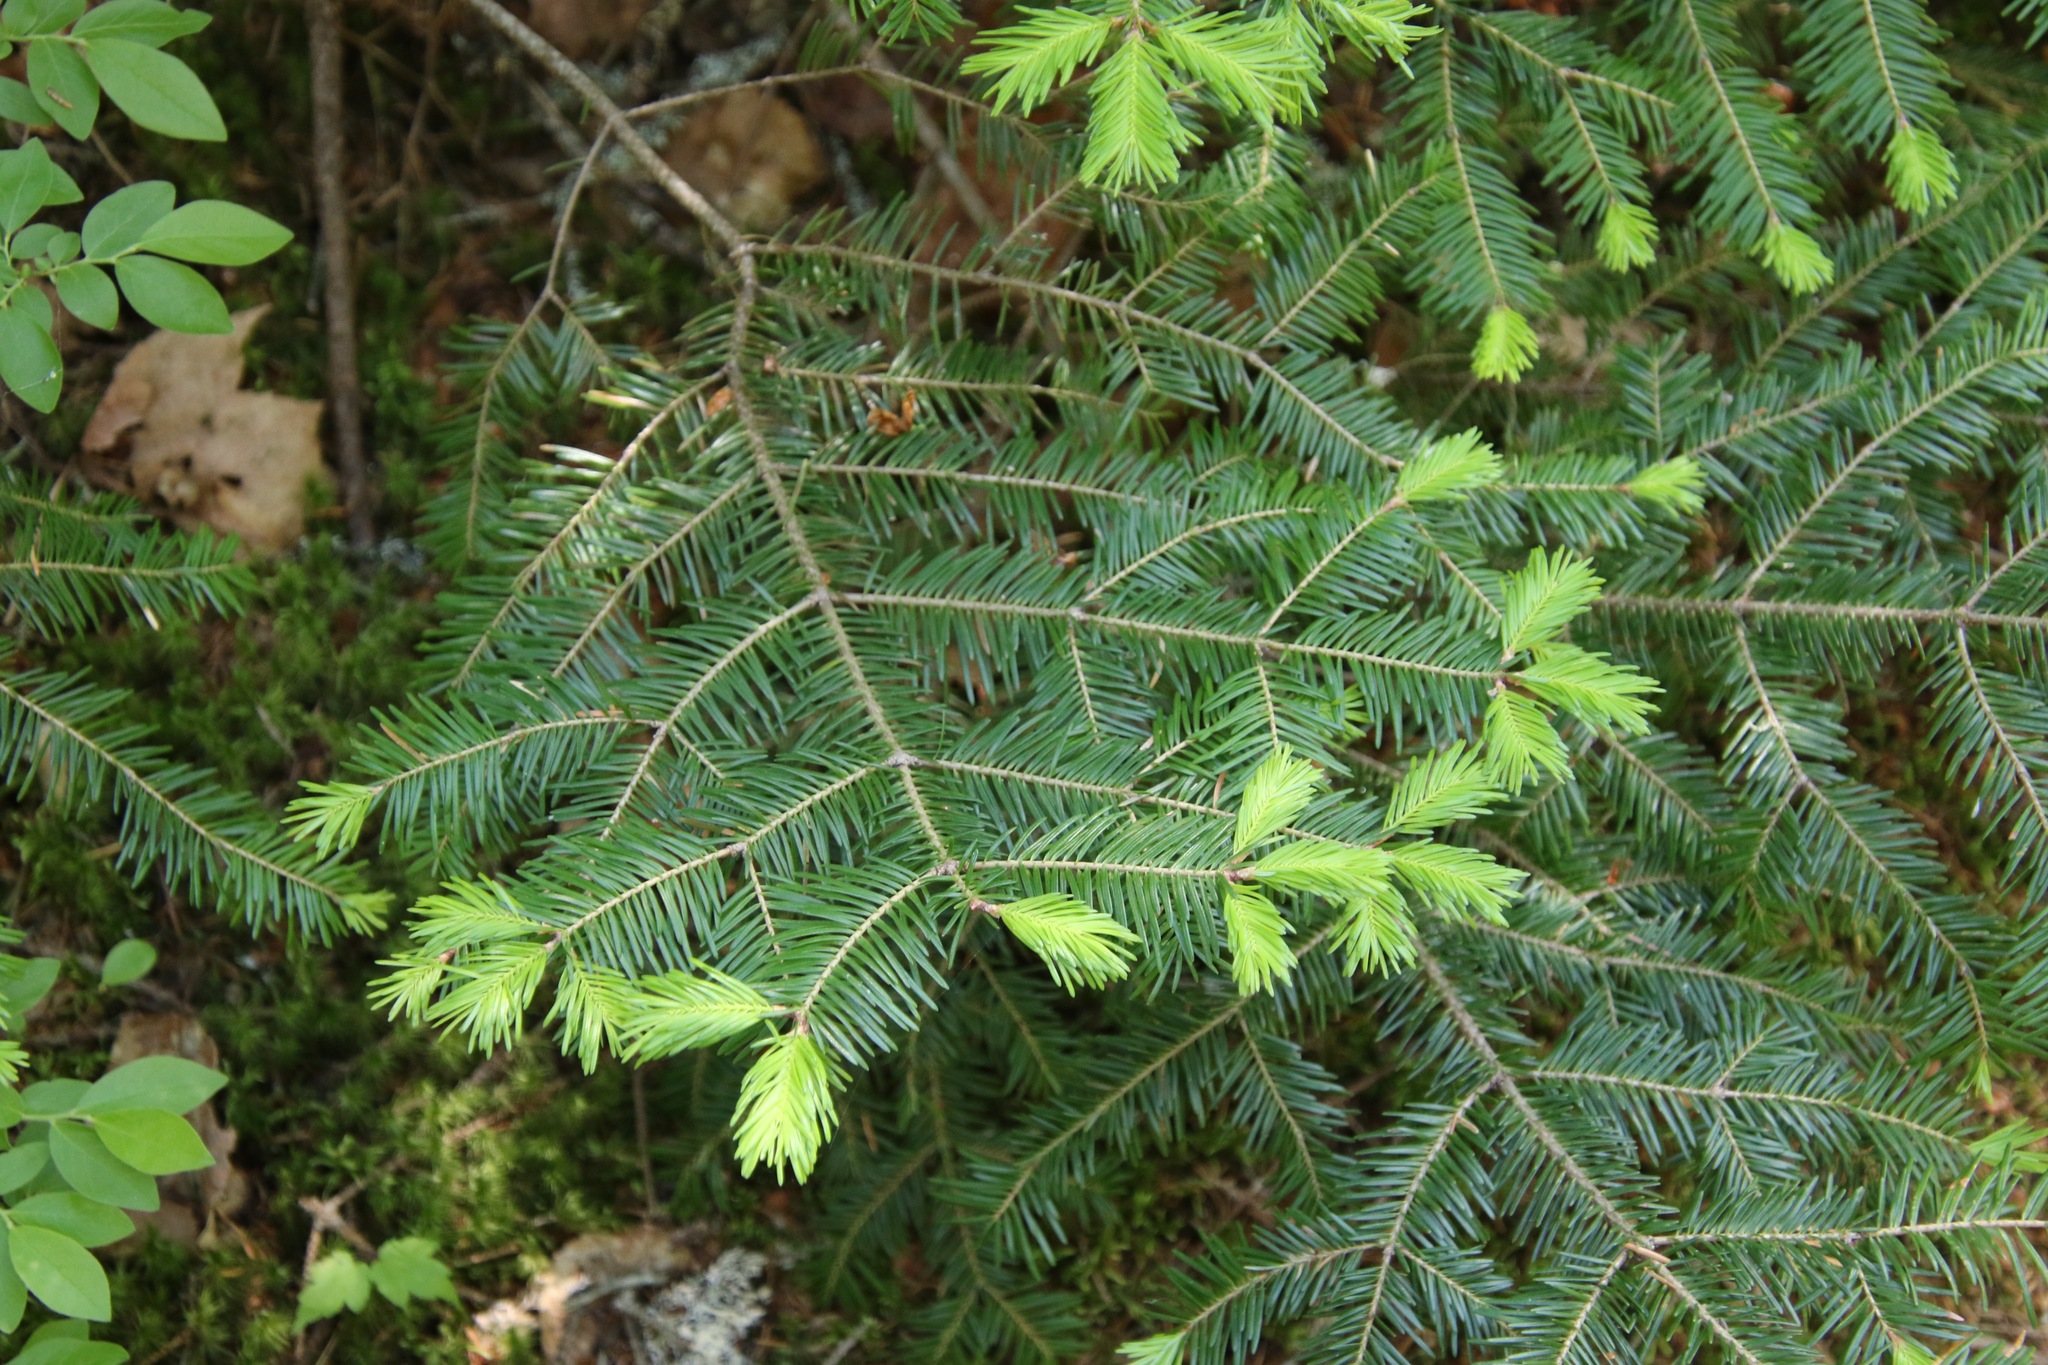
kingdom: Plantae
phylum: Tracheophyta
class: Pinopsida
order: Pinales
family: Pinaceae
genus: Abies
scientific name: Abies balsamea
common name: Balsam fir
